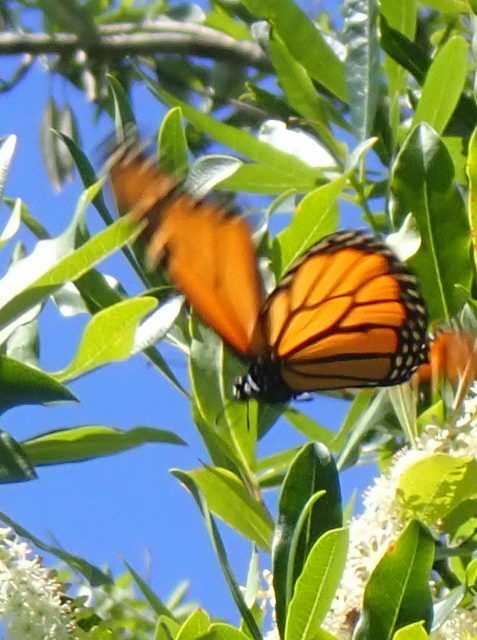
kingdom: Animalia
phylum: Arthropoda
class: Insecta
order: Lepidoptera
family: Nymphalidae
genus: Danaus
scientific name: Danaus plexippus
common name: Monarch
